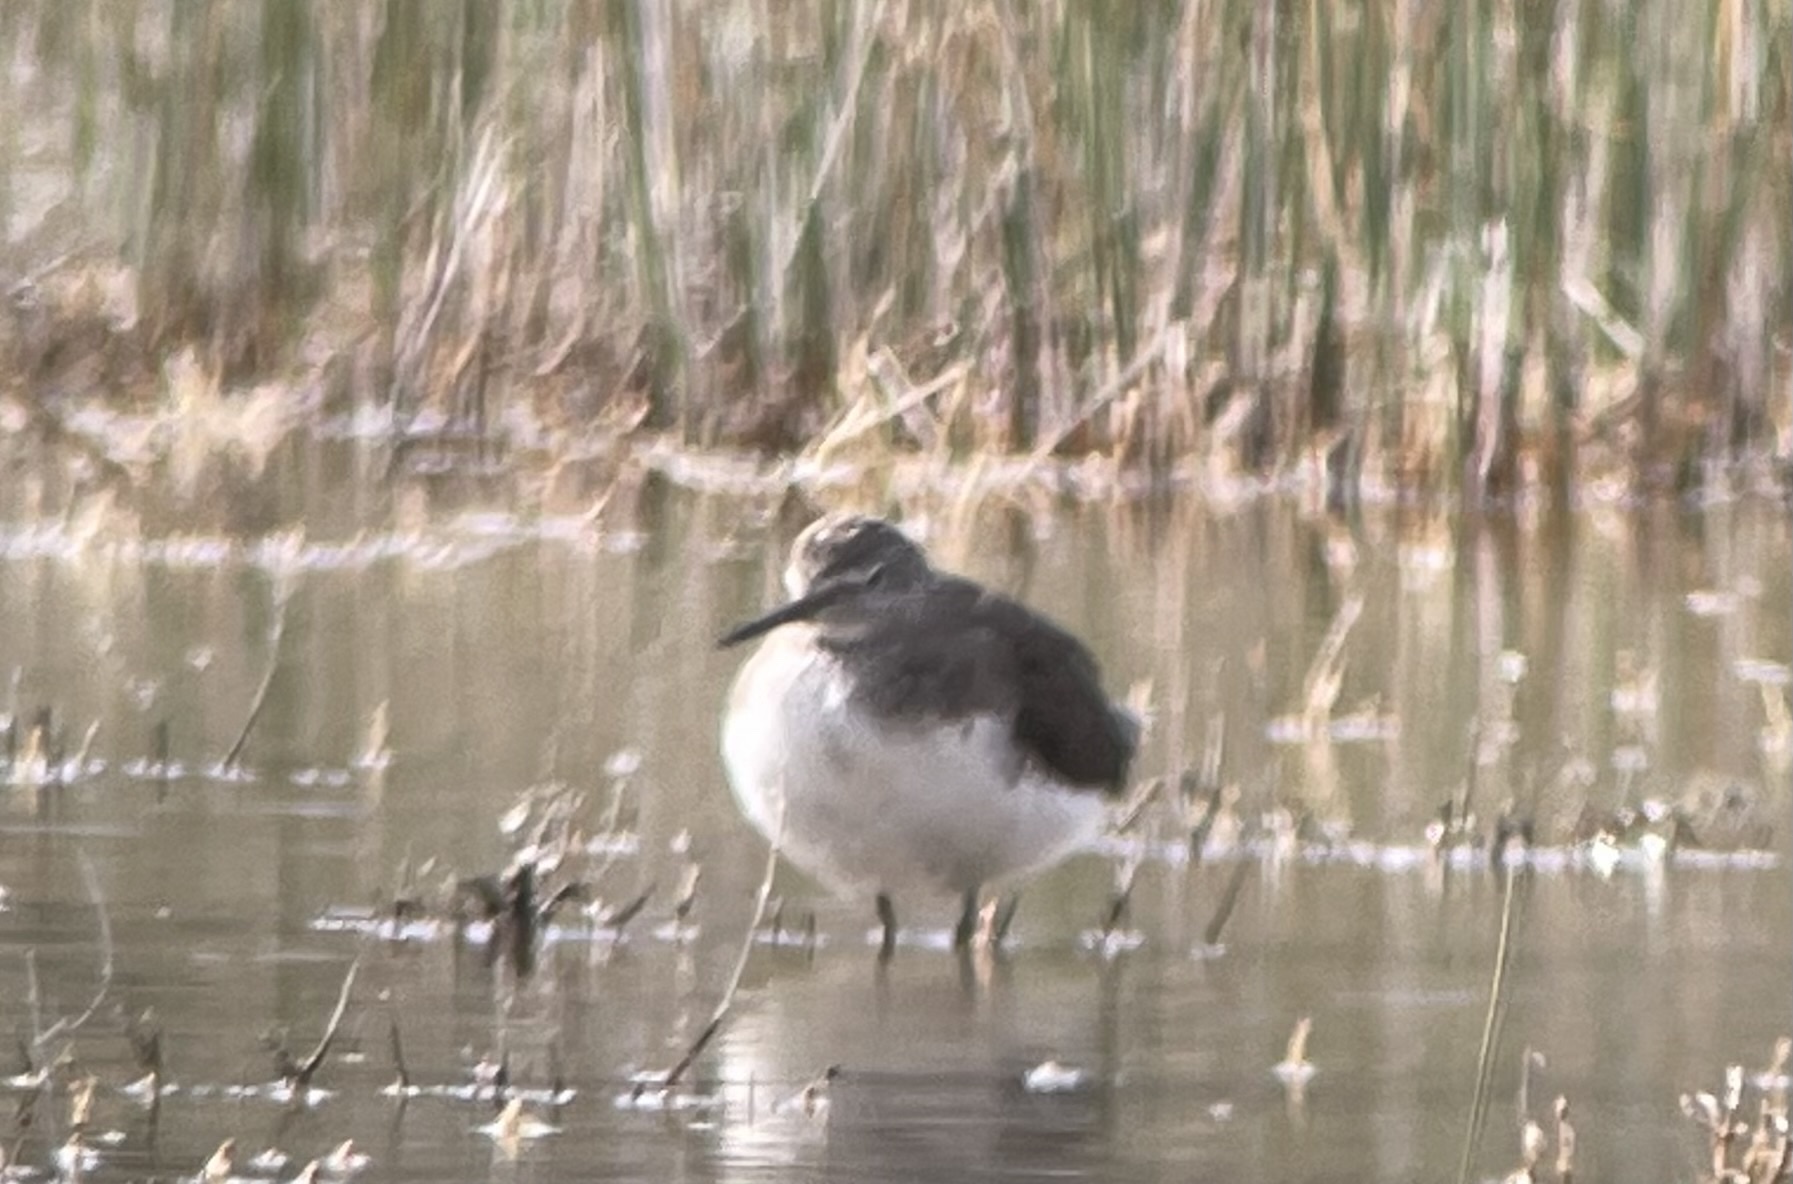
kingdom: Animalia
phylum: Chordata
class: Aves
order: Charadriiformes
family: Scolopacidae
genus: Tringa
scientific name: Tringa ochropus
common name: Green sandpiper
